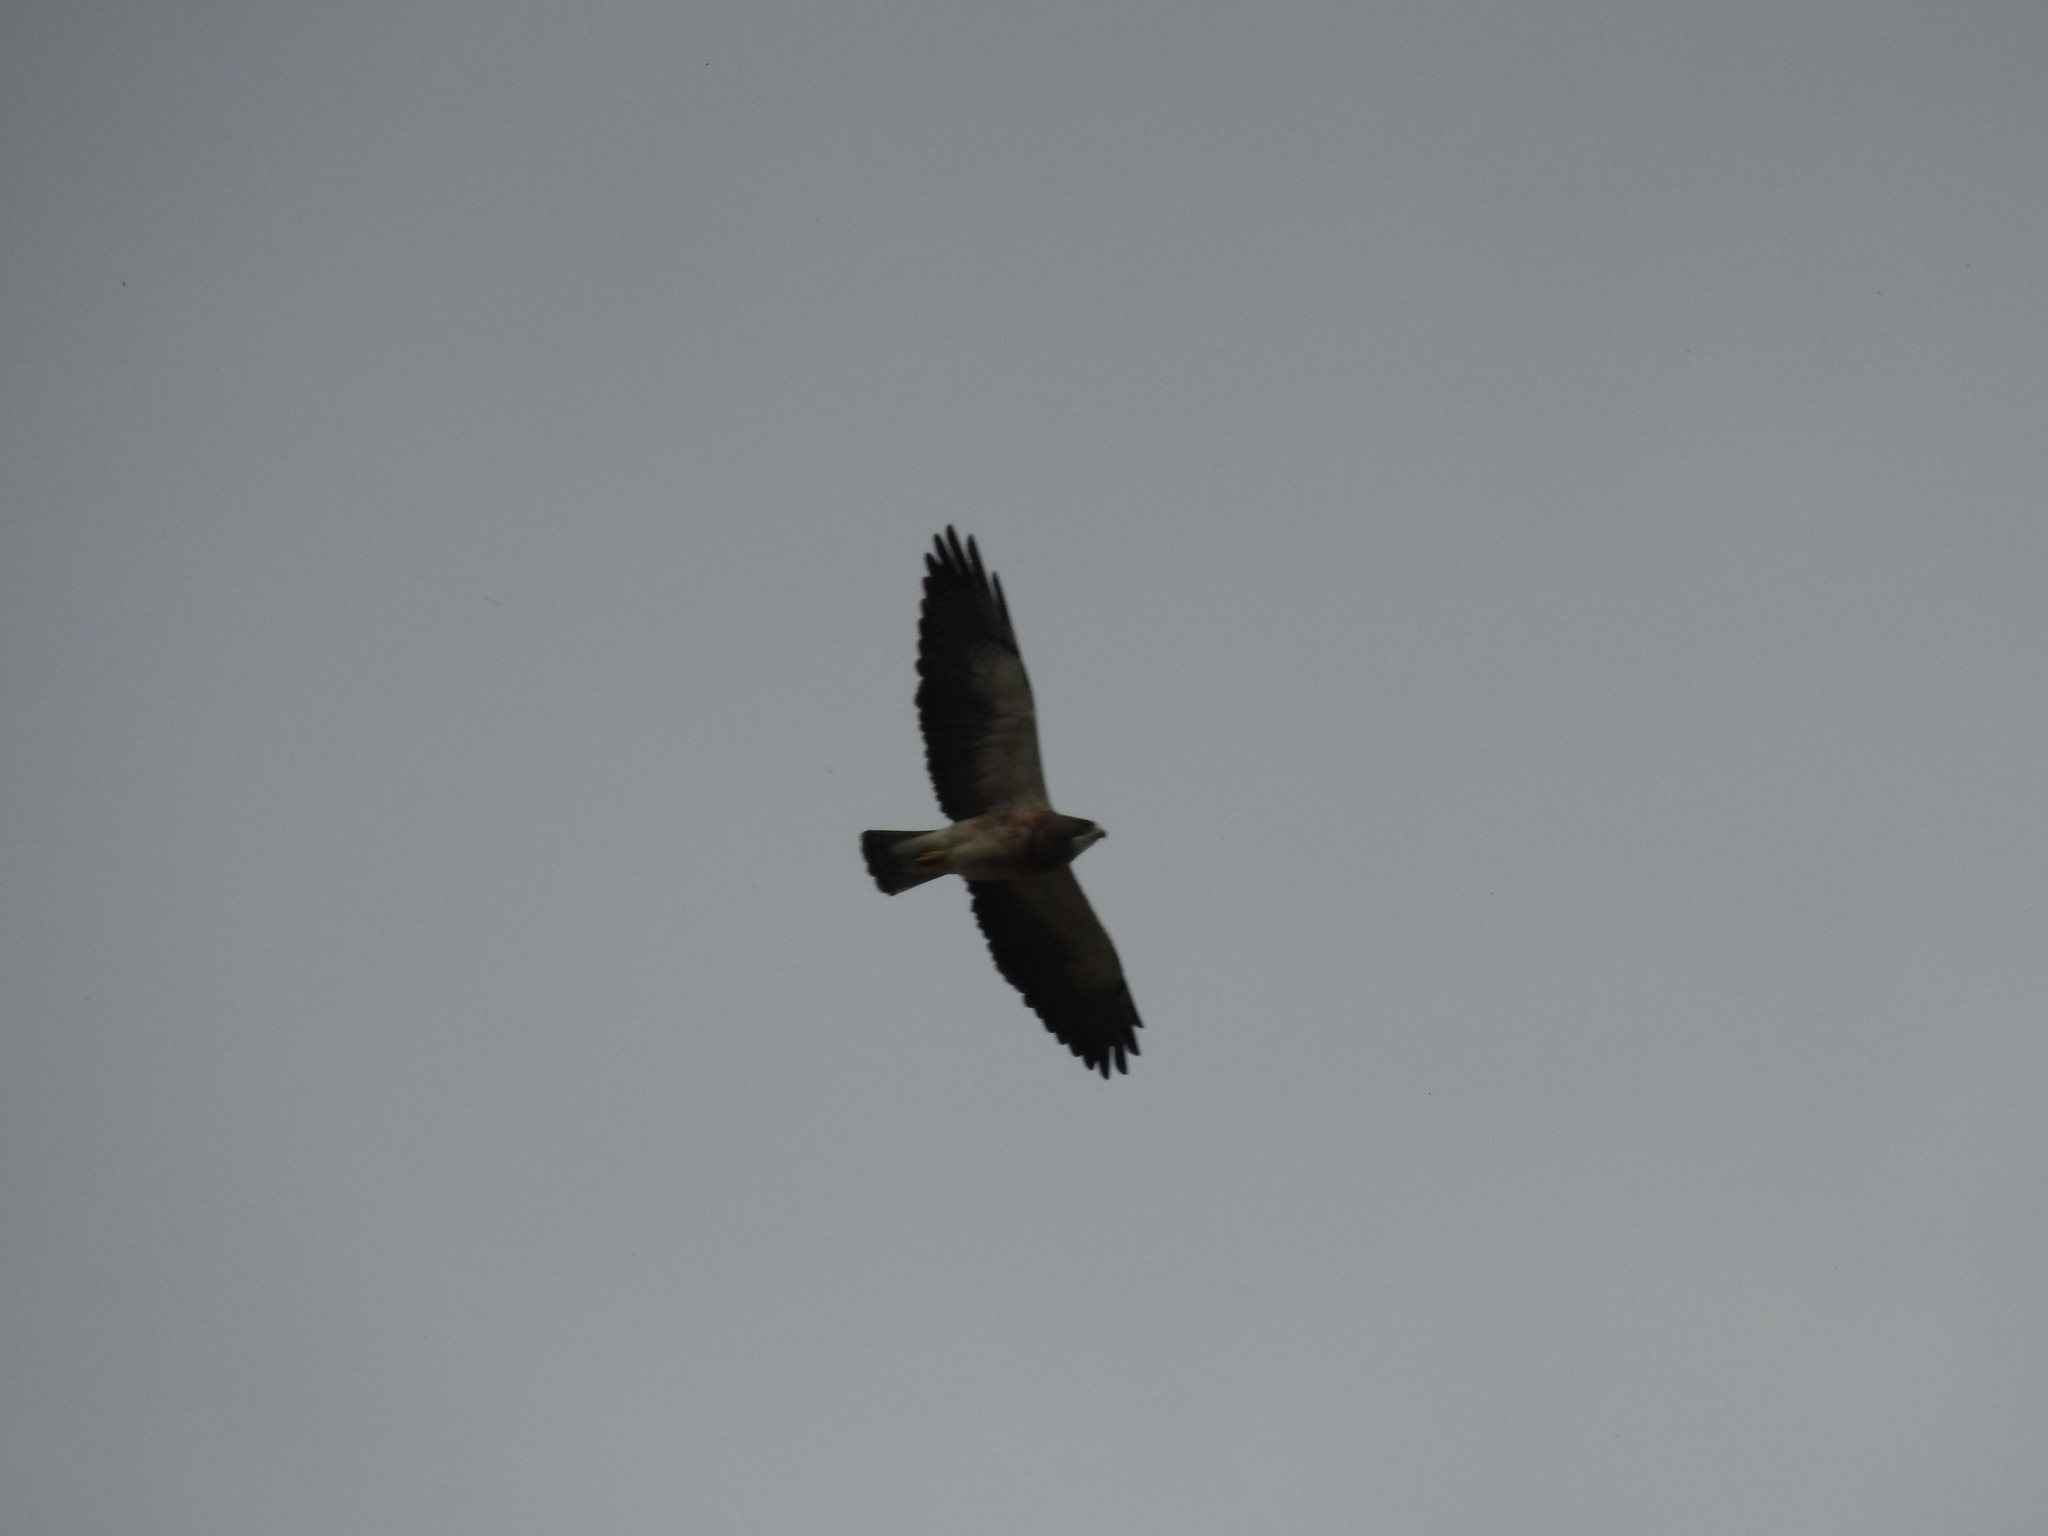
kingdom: Animalia
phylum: Chordata
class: Aves
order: Accipitriformes
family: Accipitridae
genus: Buteo
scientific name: Buteo swainsoni
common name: Swainson's hawk
